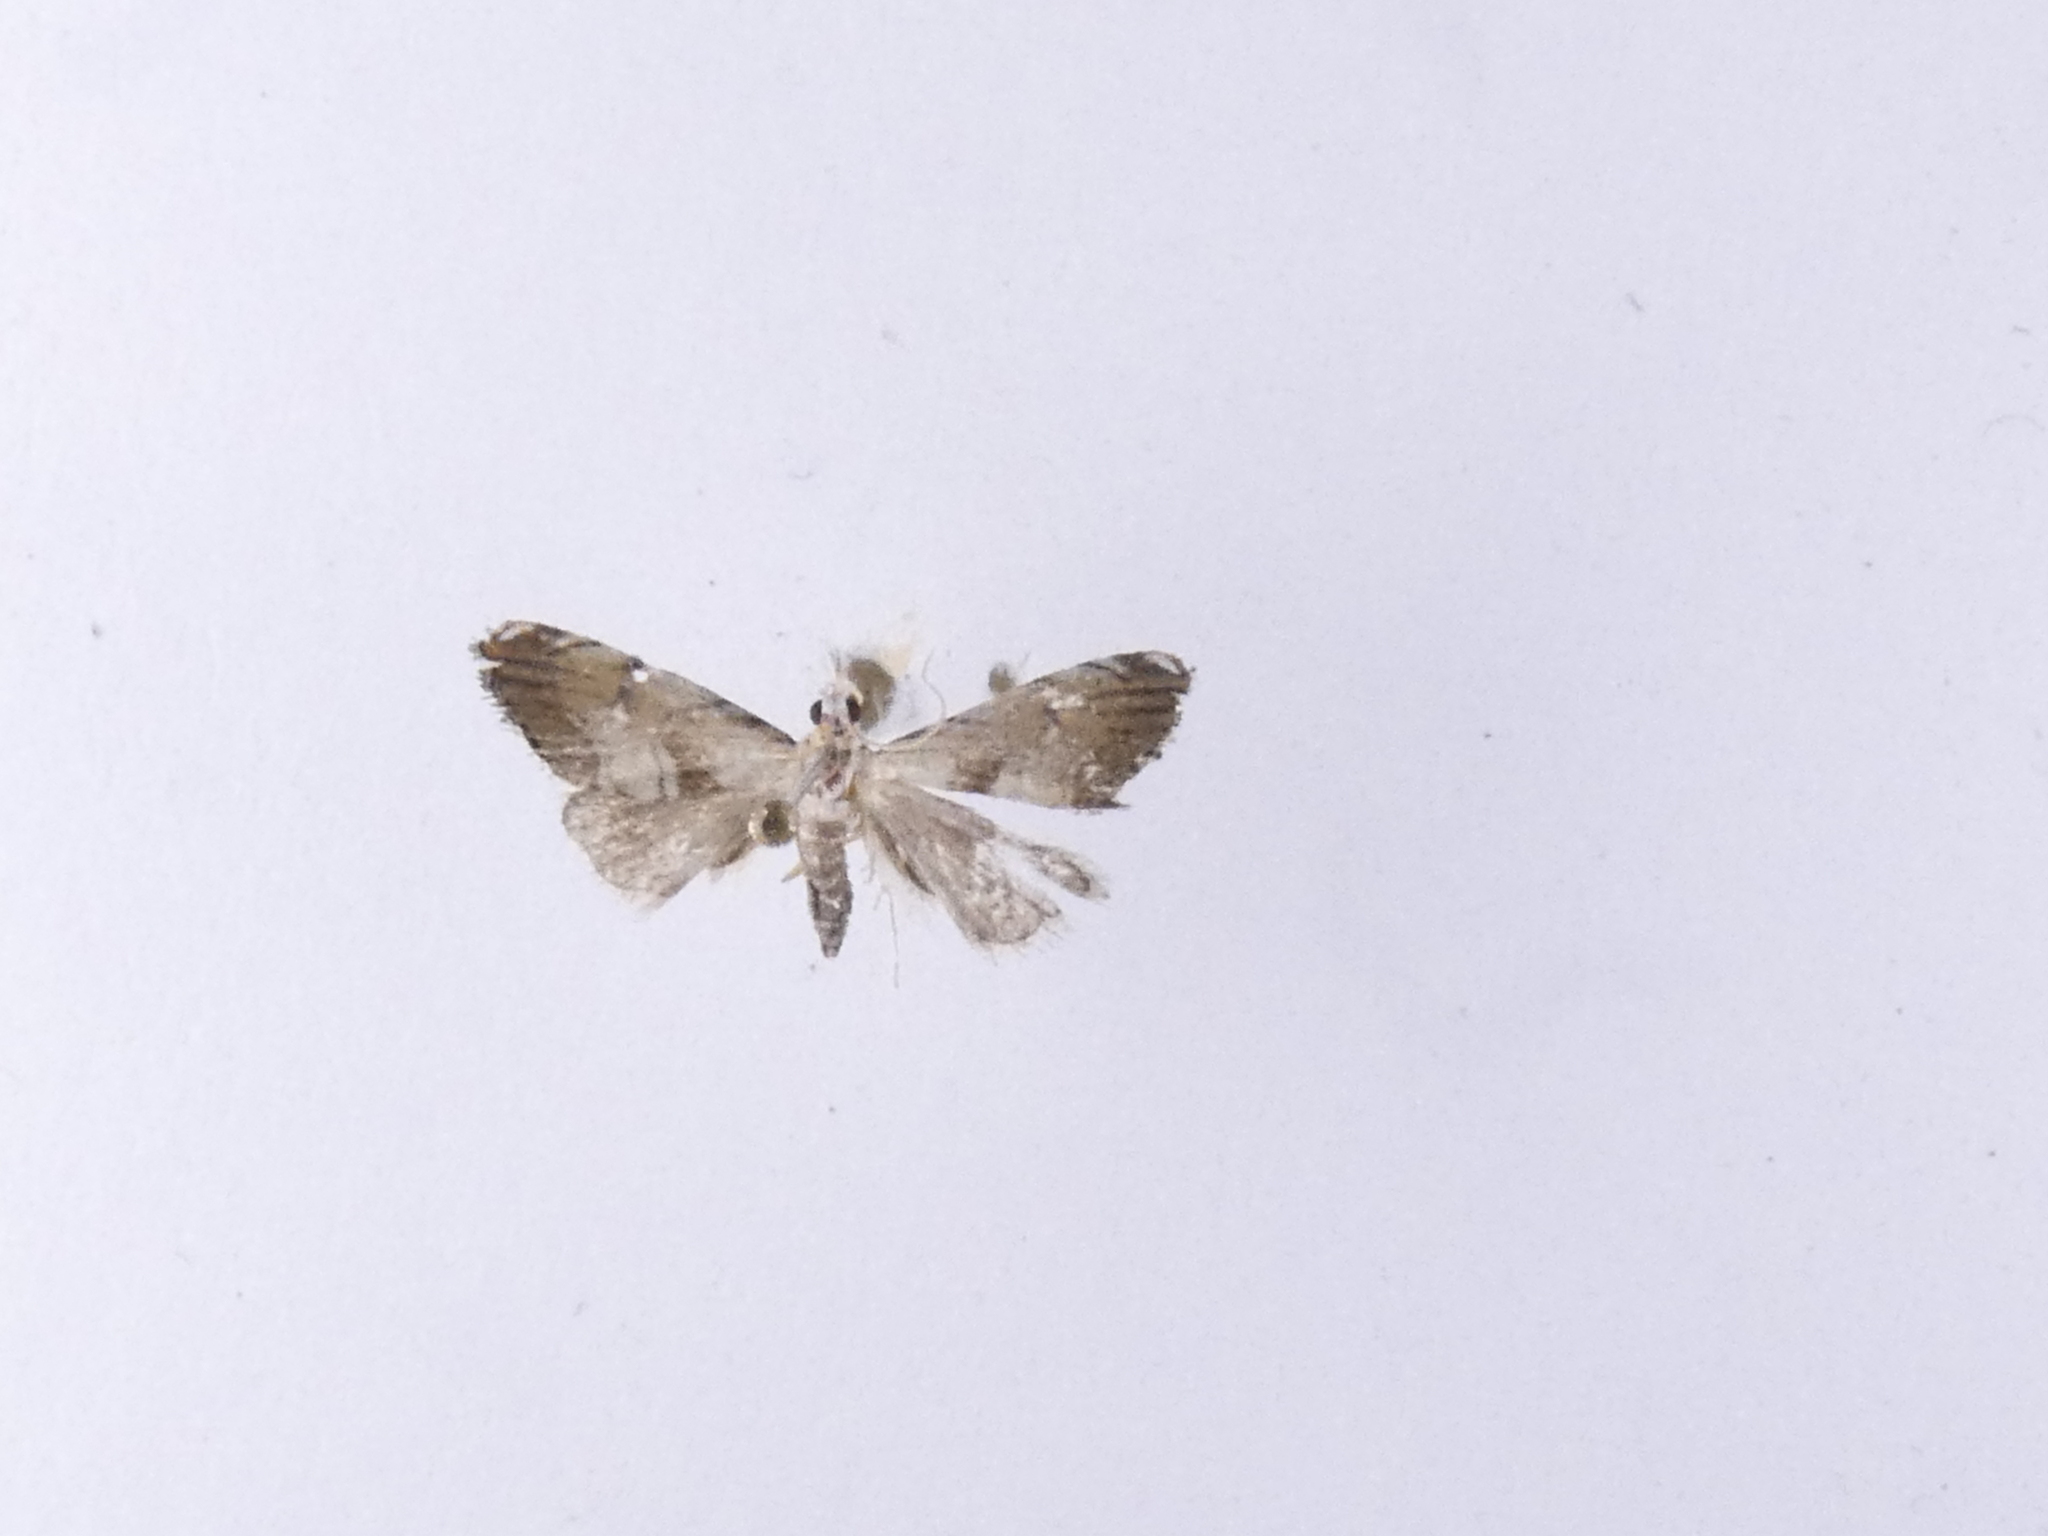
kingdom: Animalia
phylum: Arthropoda
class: Insecta
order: Lepidoptera
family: Crambidae
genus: Glaucocharis
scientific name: Glaucocharis harmonica
